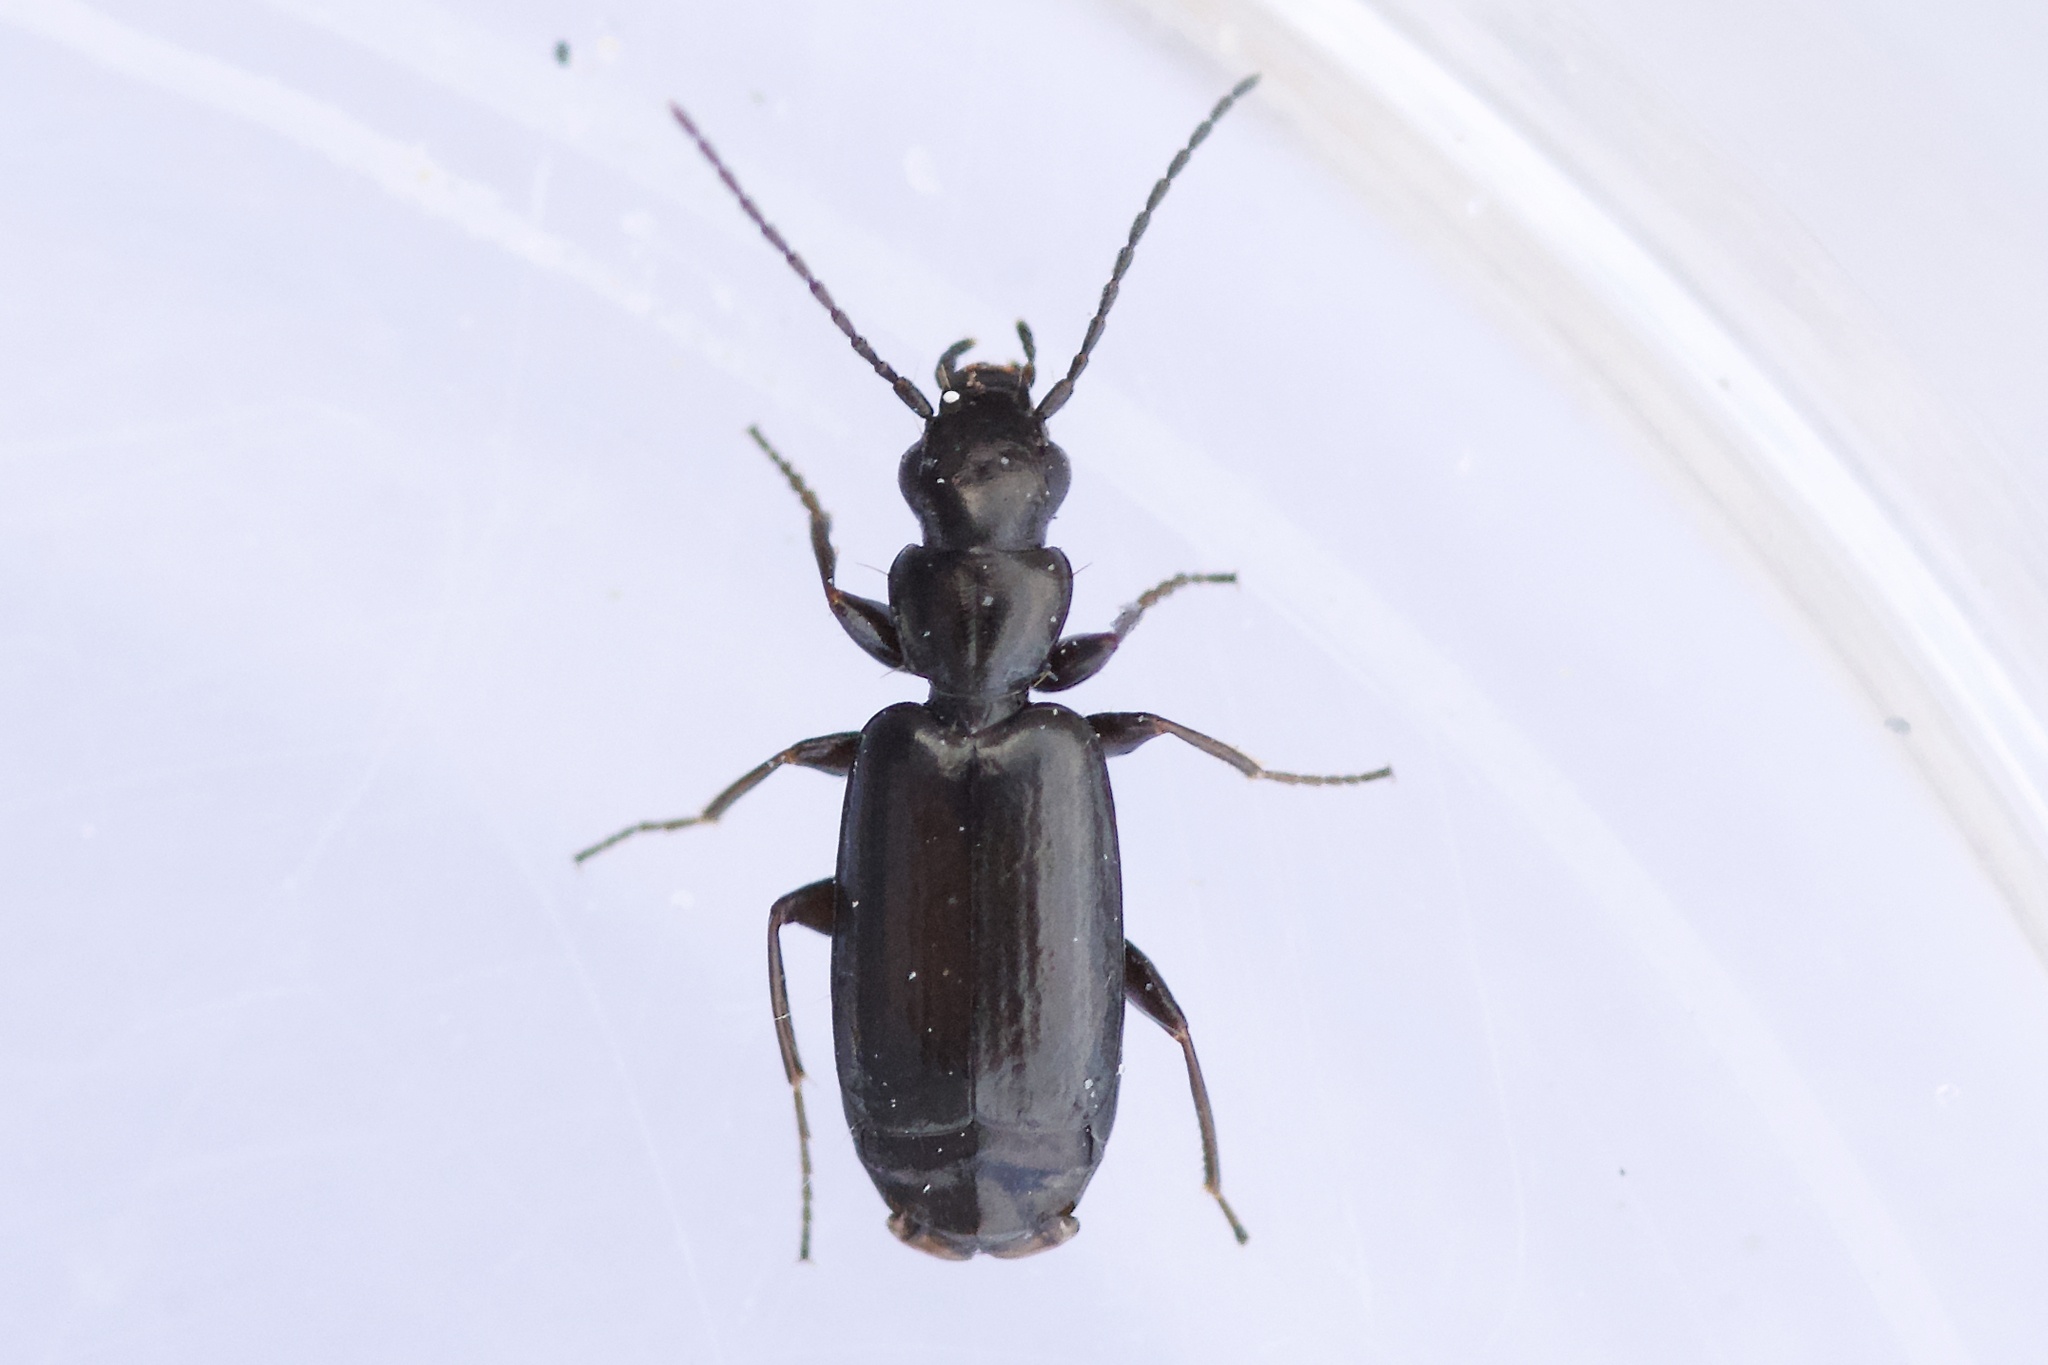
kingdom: Animalia
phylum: Arthropoda
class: Insecta
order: Coleoptera
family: Carabidae
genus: Microlestes
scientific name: Microlestes linearis
